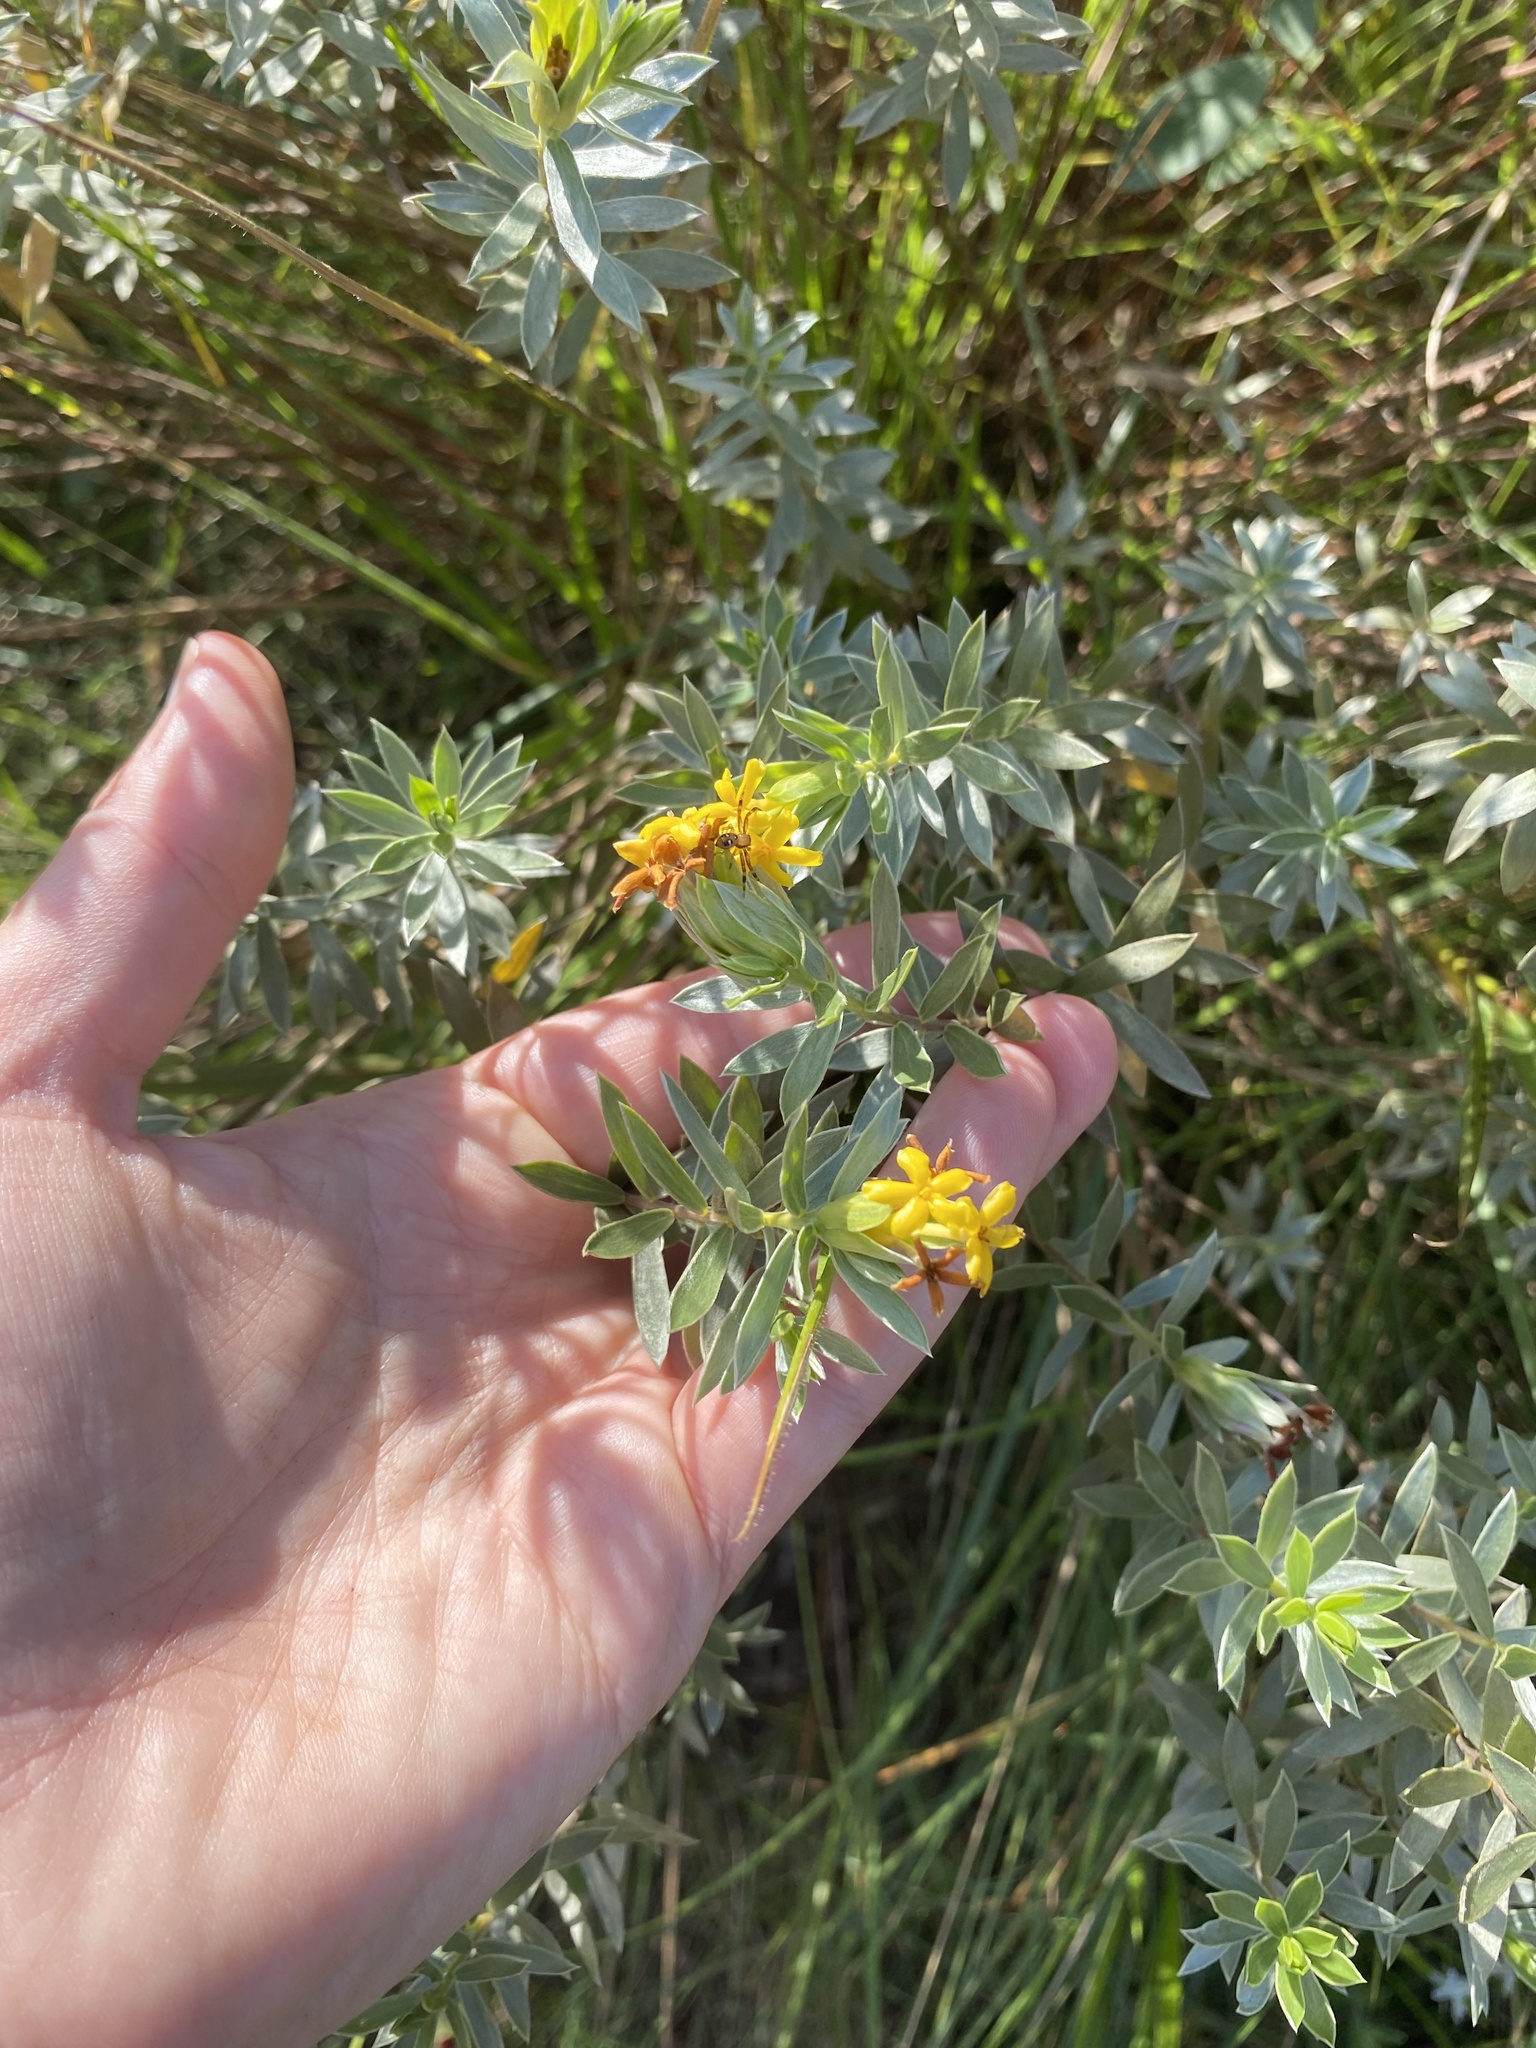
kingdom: Plantae
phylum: Tracheophyta
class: Magnoliopsida
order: Malvales
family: Thymelaeaceae
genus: Gnidia
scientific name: Gnidia capitata
